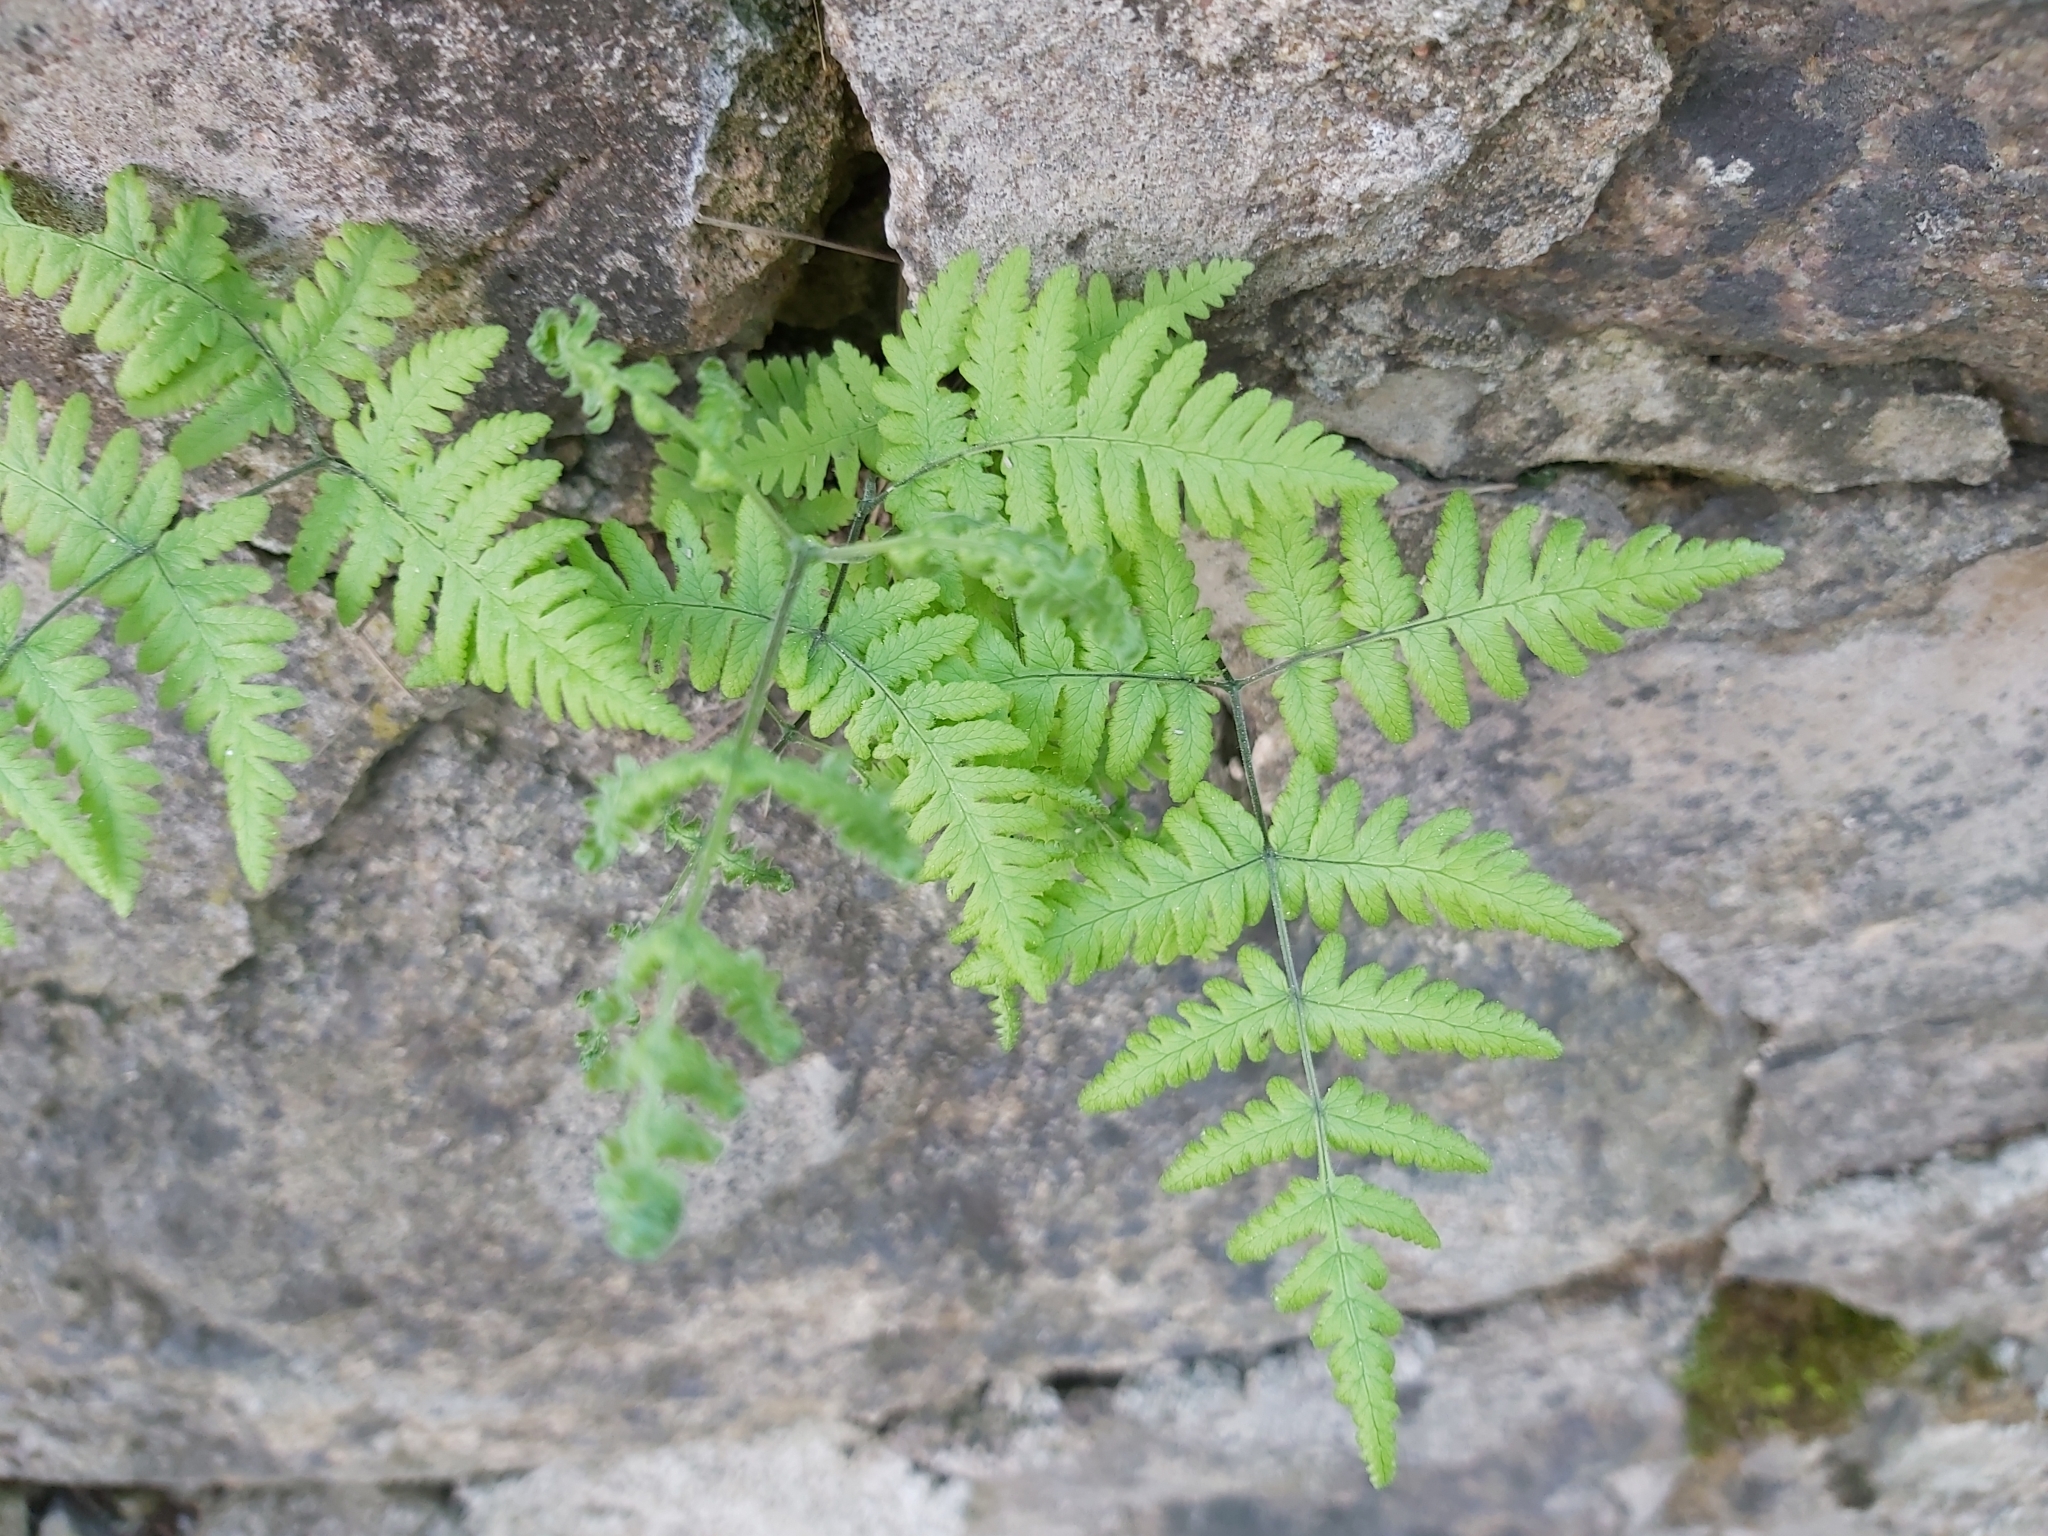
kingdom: Plantae
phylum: Tracheophyta
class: Polypodiopsida
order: Polypodiales
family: Cystopteridaceae
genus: Gymnocarpium
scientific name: Gymnocarpium robertianum
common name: Limestone fern
